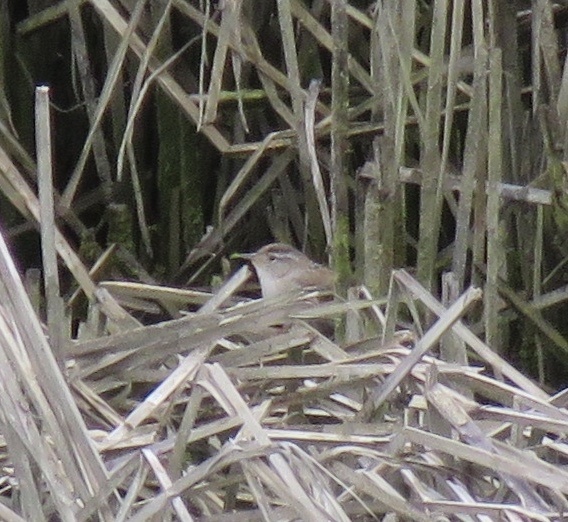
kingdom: Animalia
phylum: Chordata
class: Aves
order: Passeriformes
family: Troglodytidae
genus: Cistothorus
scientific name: Cistothorus palustris
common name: Marsh wren
